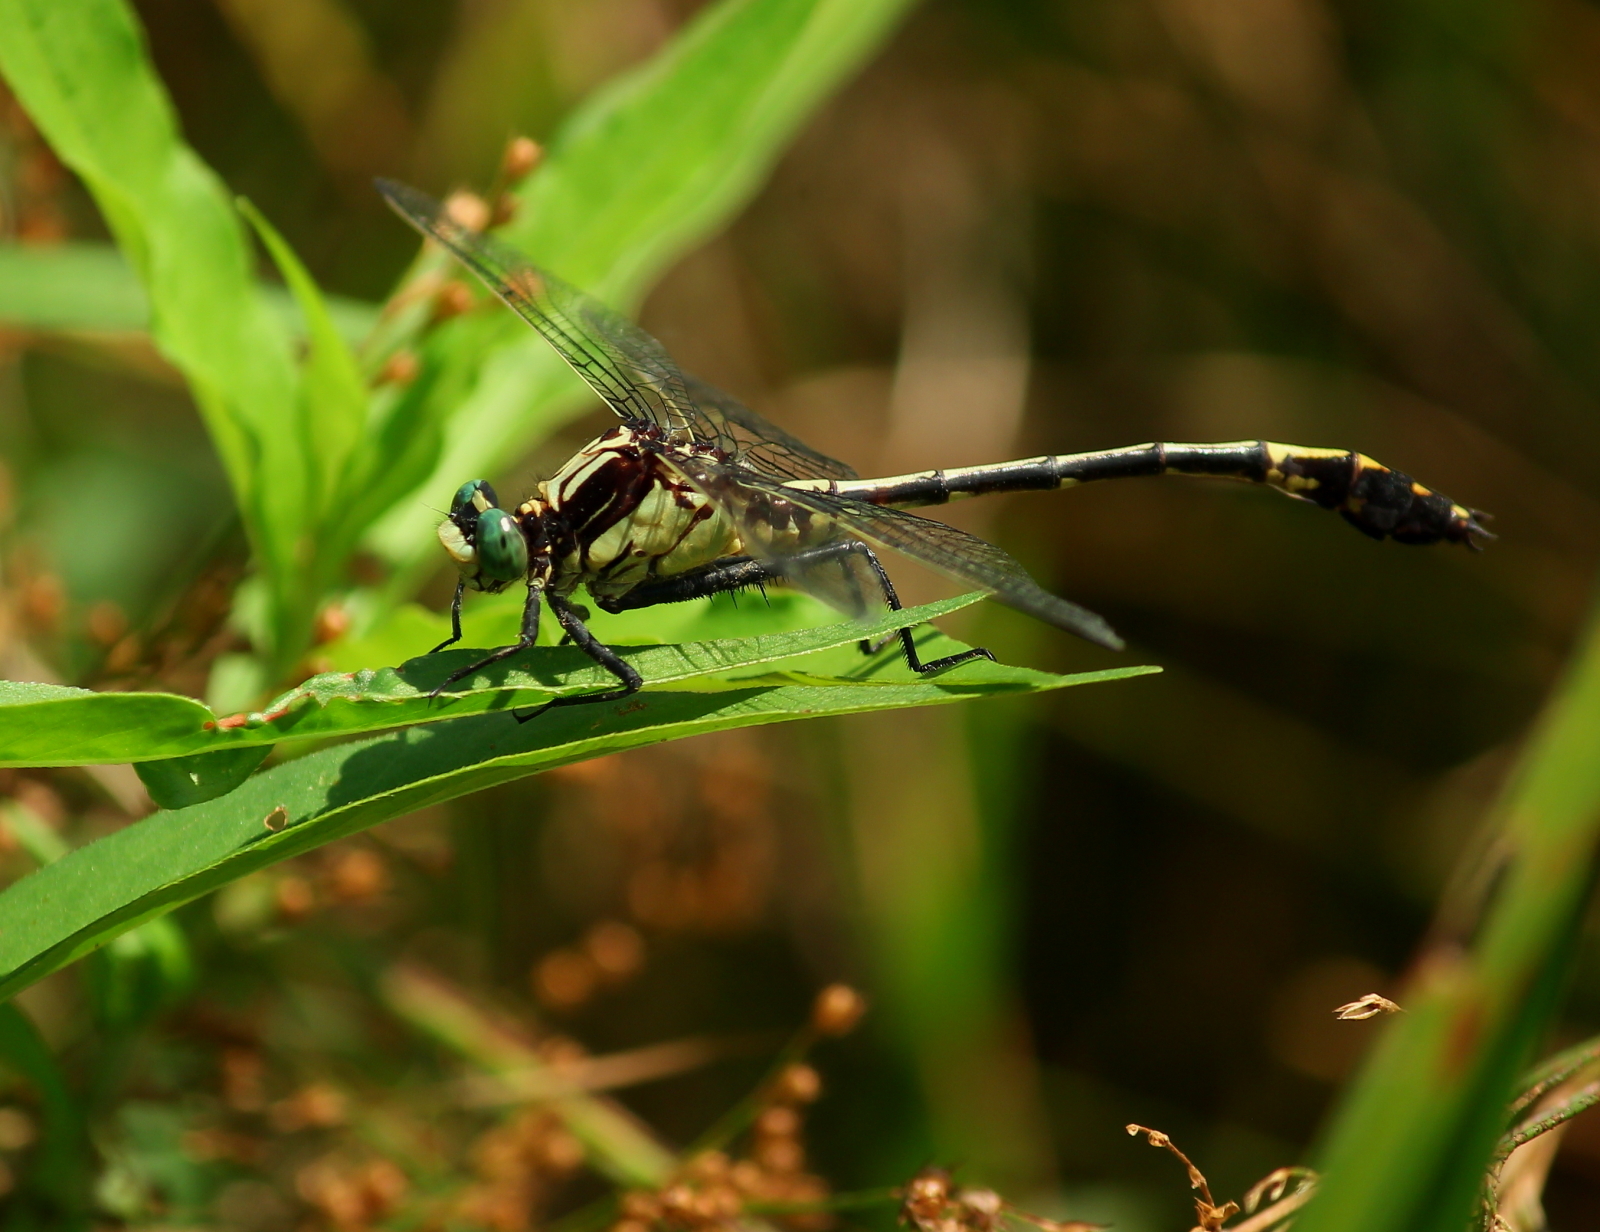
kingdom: Animalia
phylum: Arthropoda
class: Insecta
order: Odonata
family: Gomphidae
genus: Dromogomphus
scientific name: Dromogomphus spinosus
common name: Black-shouldered spinyleg
